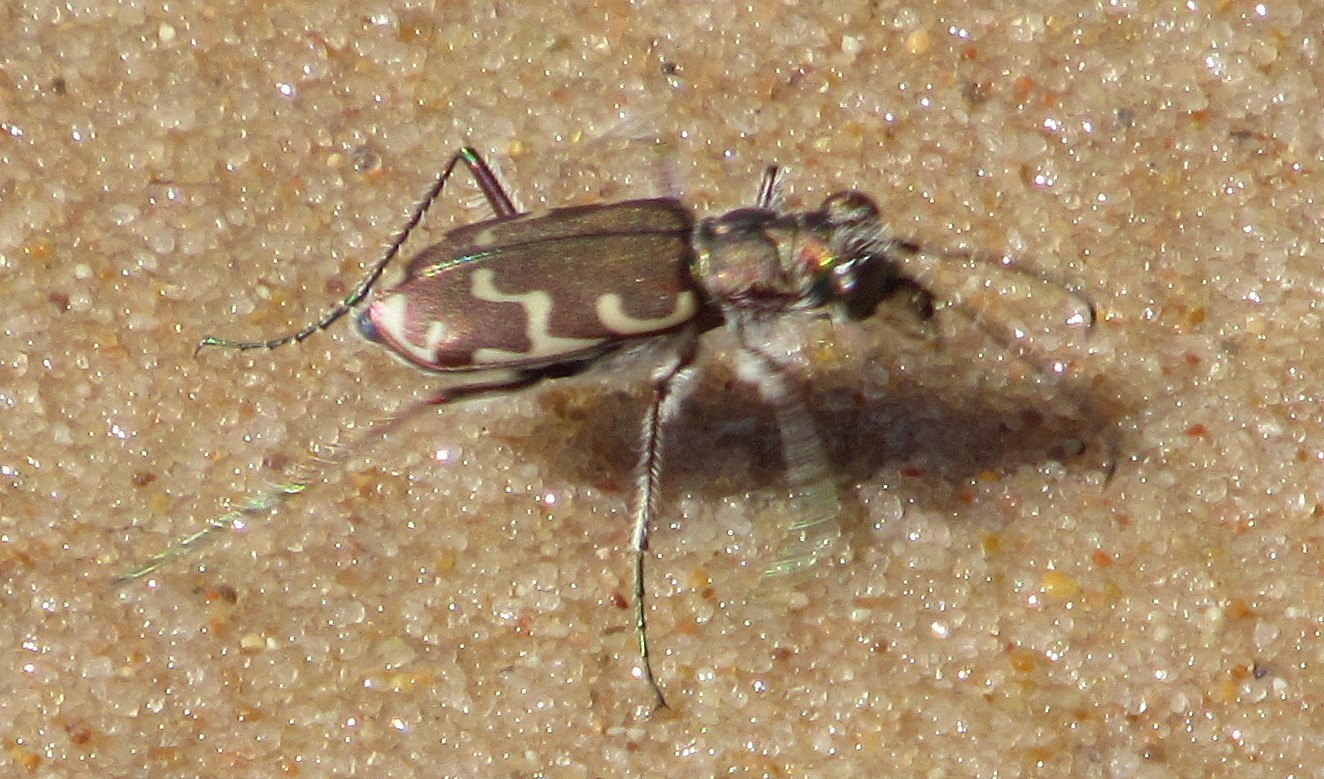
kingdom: Animalia
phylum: Arthropoda
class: Insecta
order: Coleoptera
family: Carabidae
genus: Cicindela
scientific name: Cicindela repanda
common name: Bronzed tiger beetle
